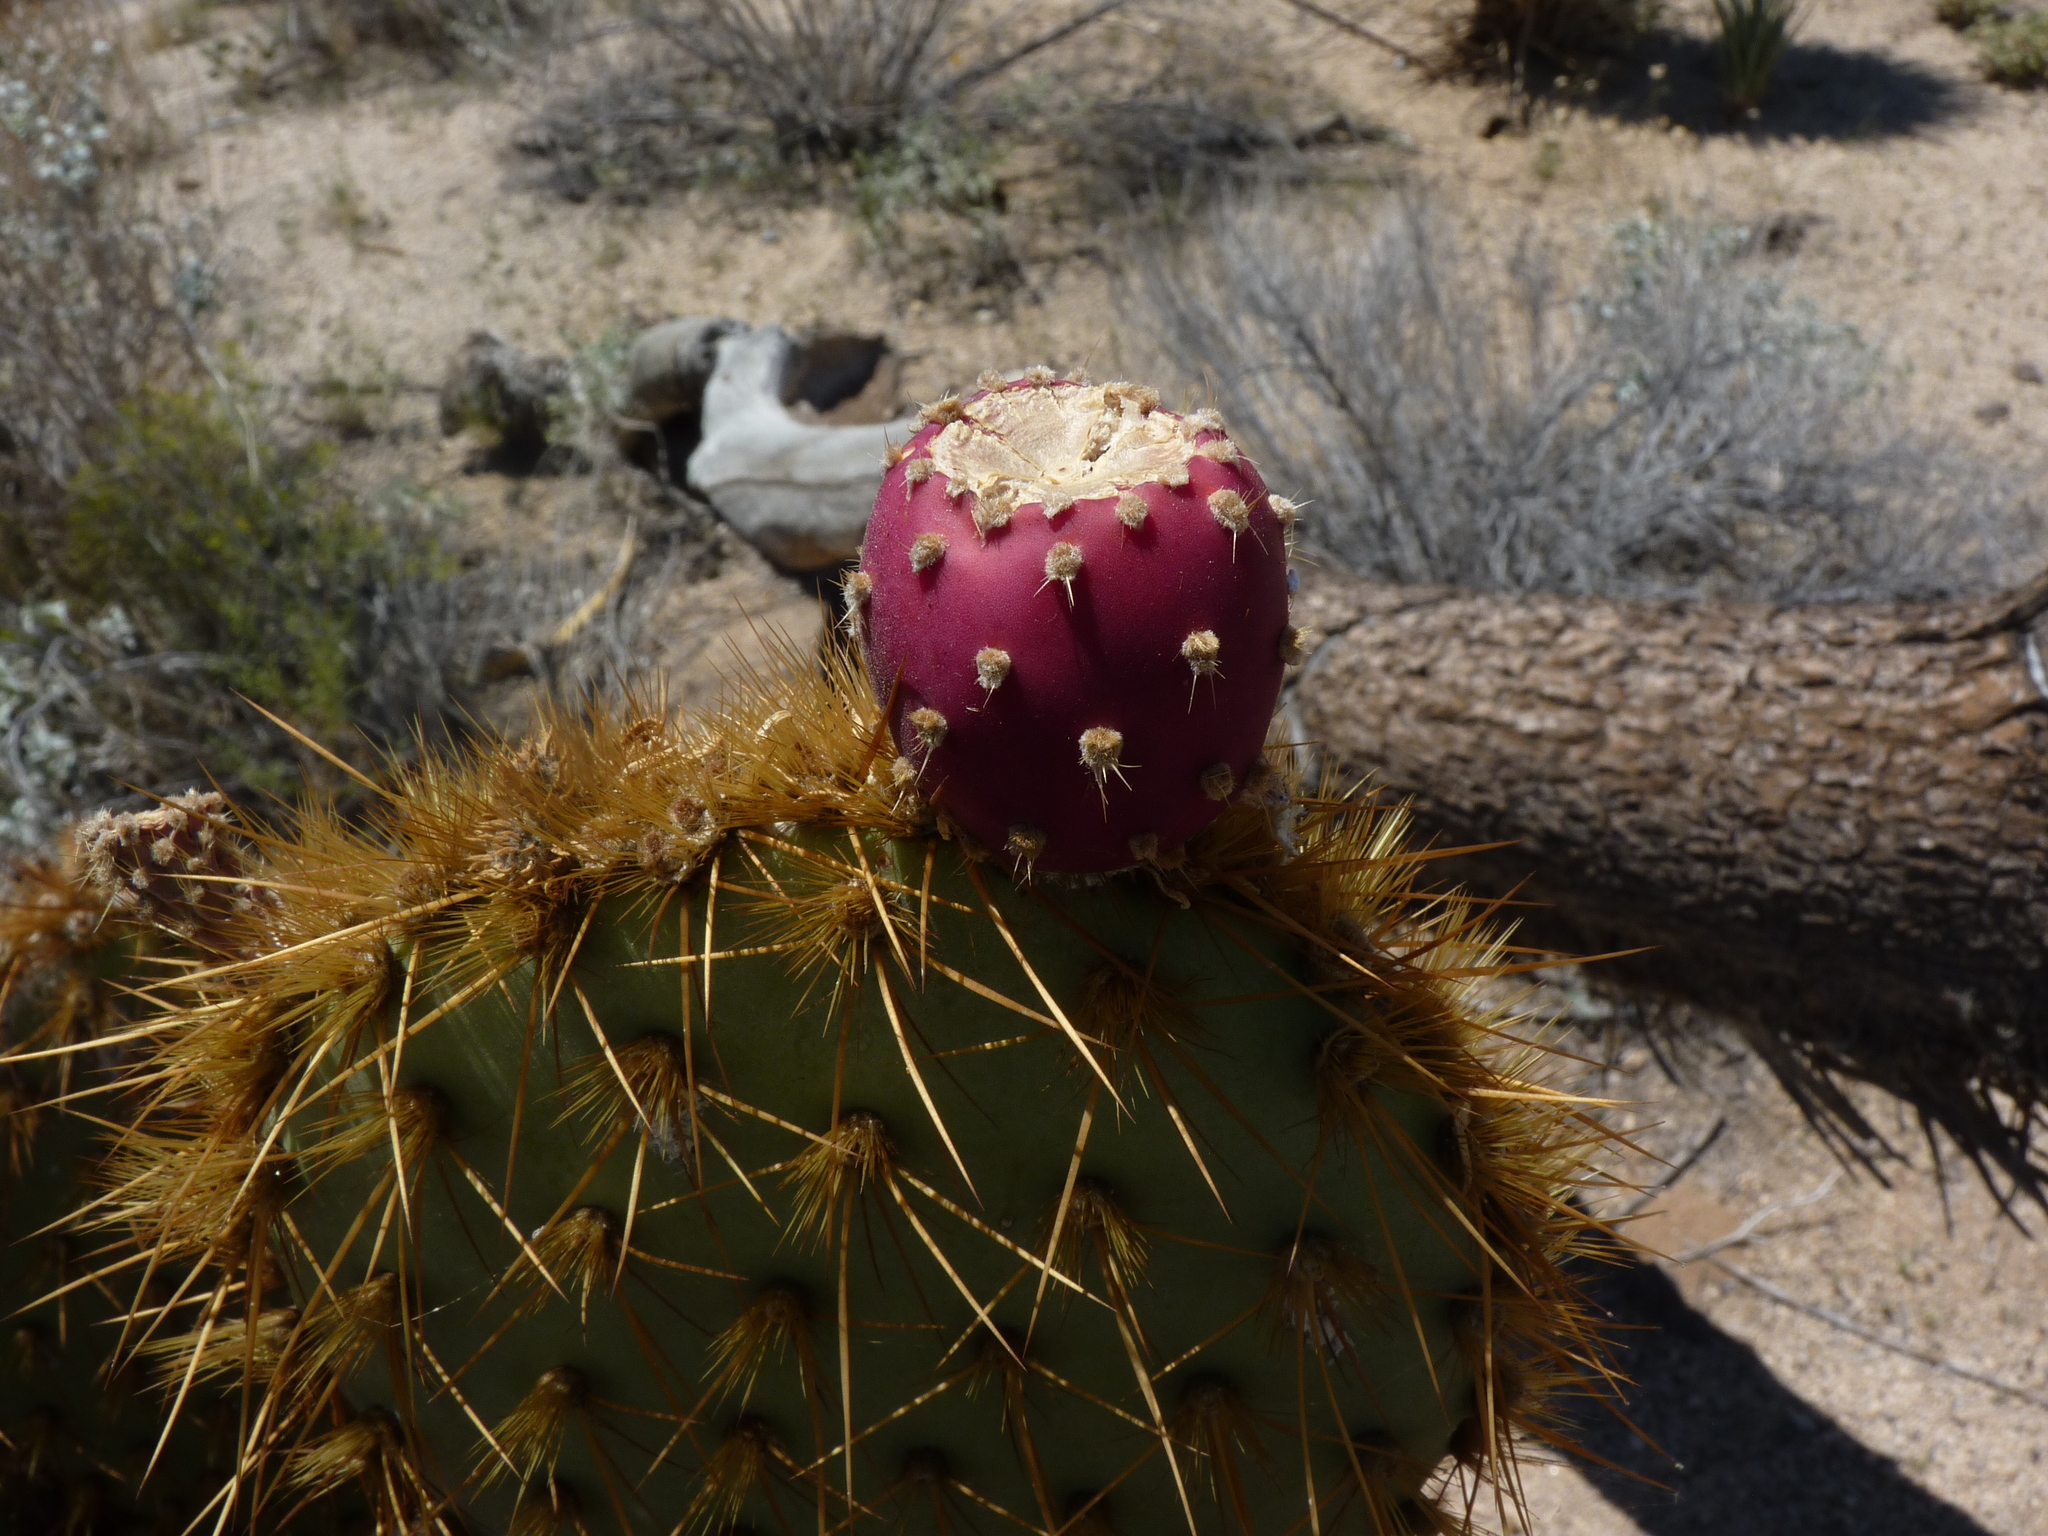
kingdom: Plantae
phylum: Tracheophyta
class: Magnoliopsida
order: Caryophyllales
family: Cactaceae
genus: Opuntia
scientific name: Opuntia chlorotica
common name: Dollar-joint prickly-pear
